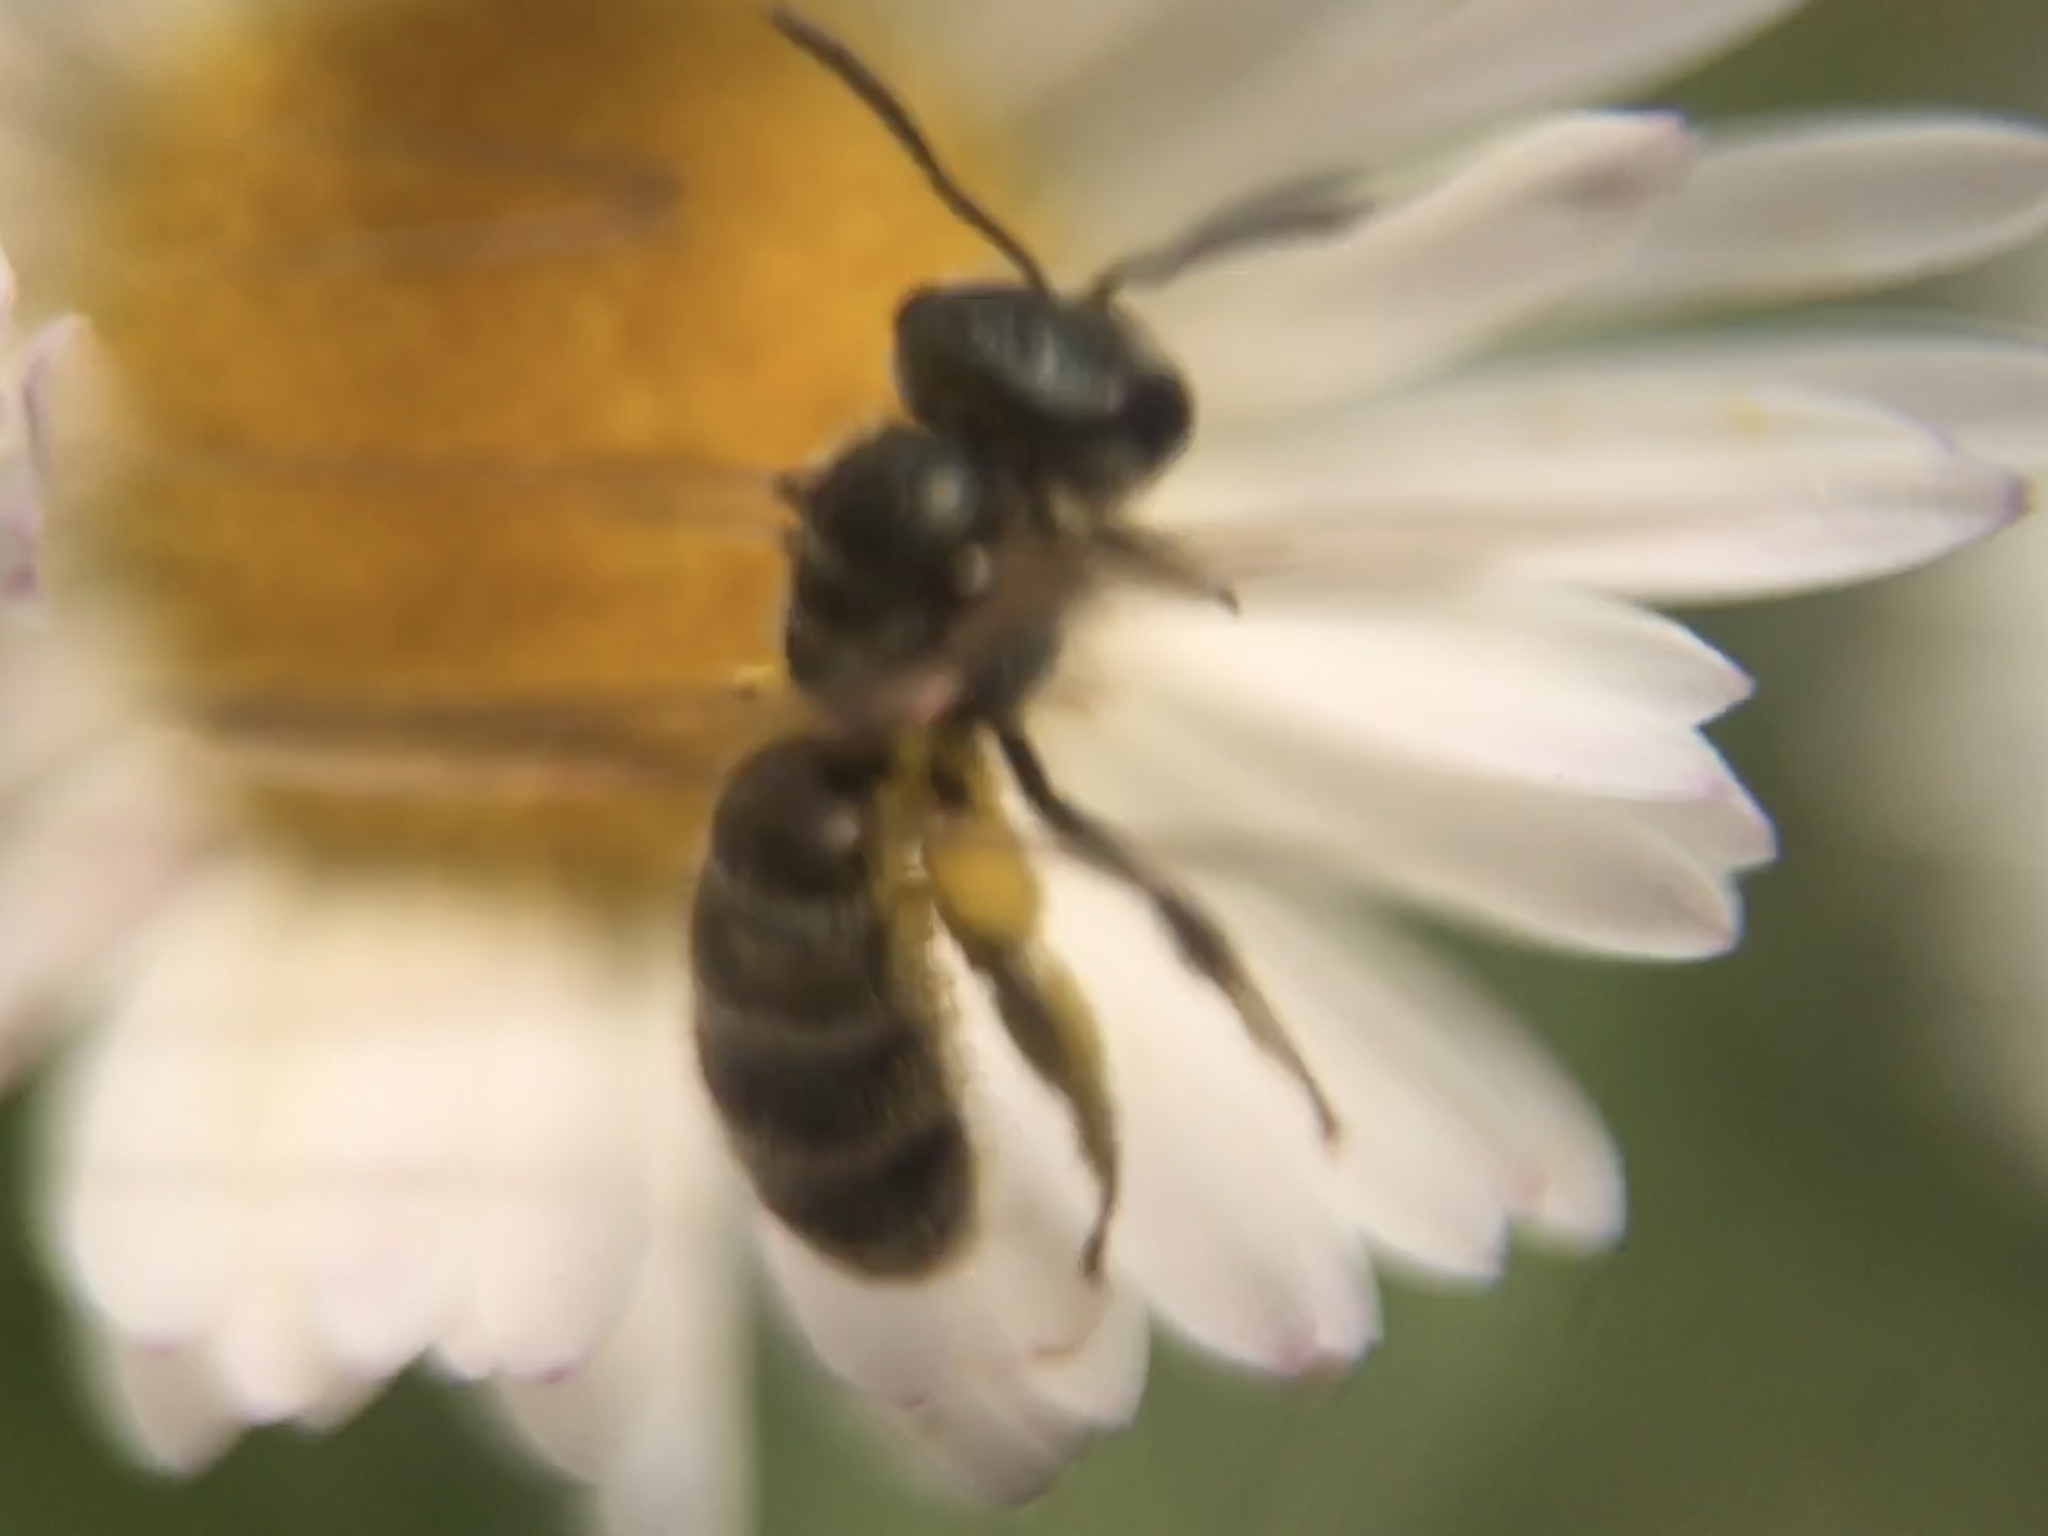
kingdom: Animalia
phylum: Arthropoda
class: Insecta
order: Hymenoptera
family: Halictidae
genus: Halictus
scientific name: Halictus tripartitus
